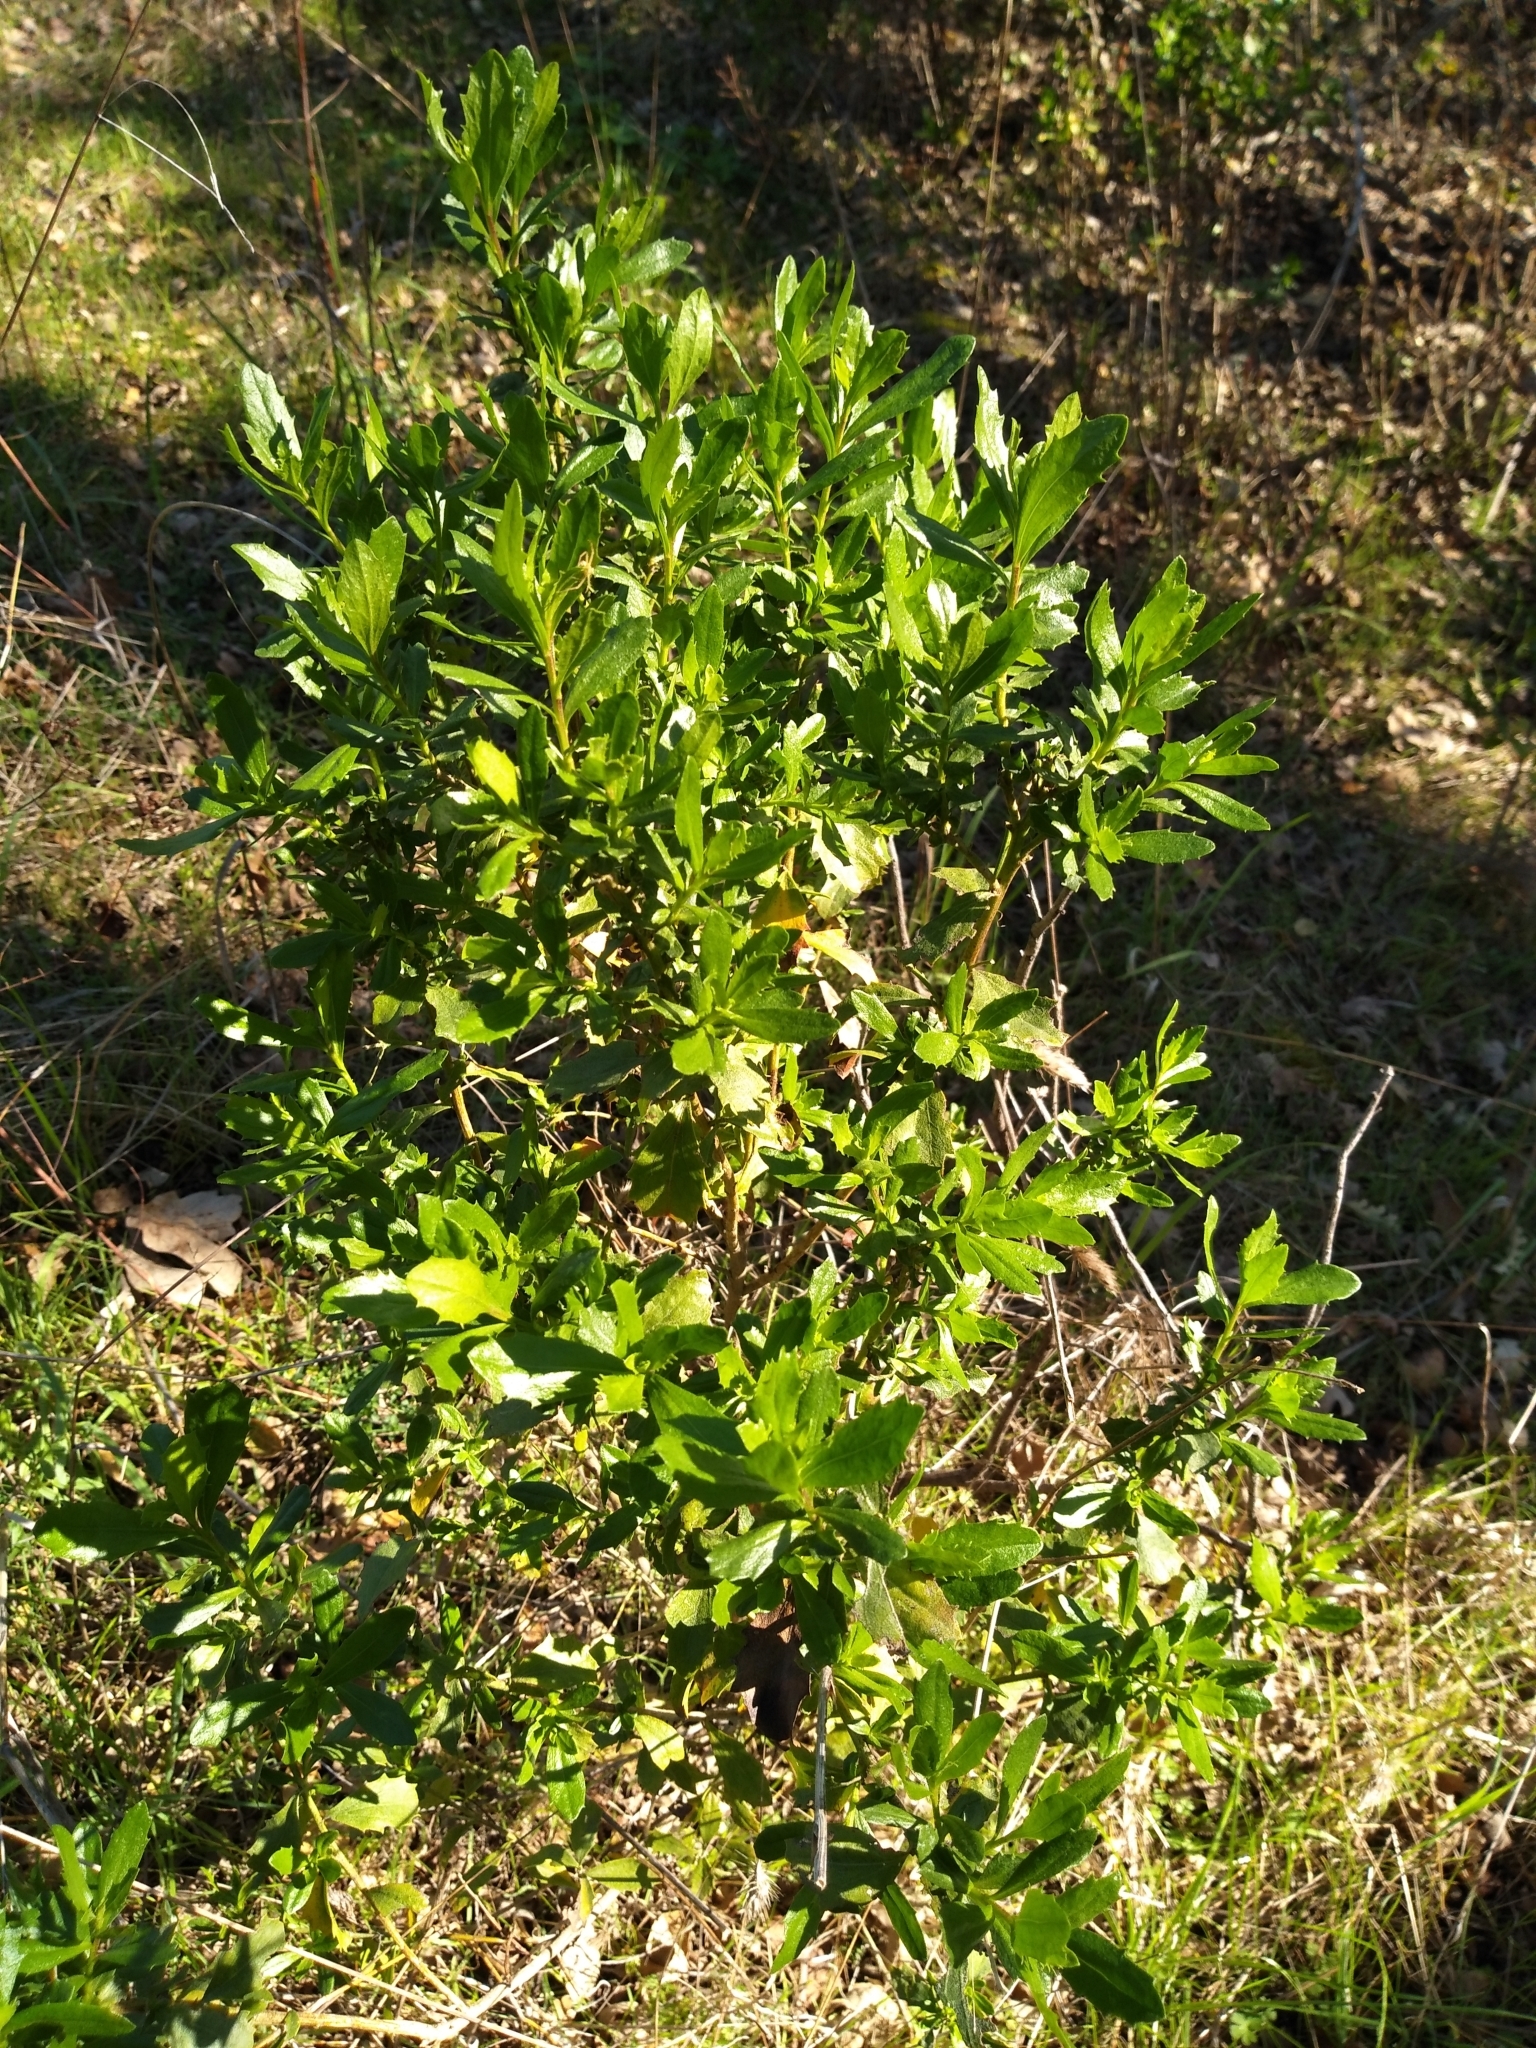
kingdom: Plantae
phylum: Tracheophyta
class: Magnoliopsida
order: Asterales
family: Asteraceae
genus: Baccharis
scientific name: Baccharis pilularis
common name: Coyotebrush
